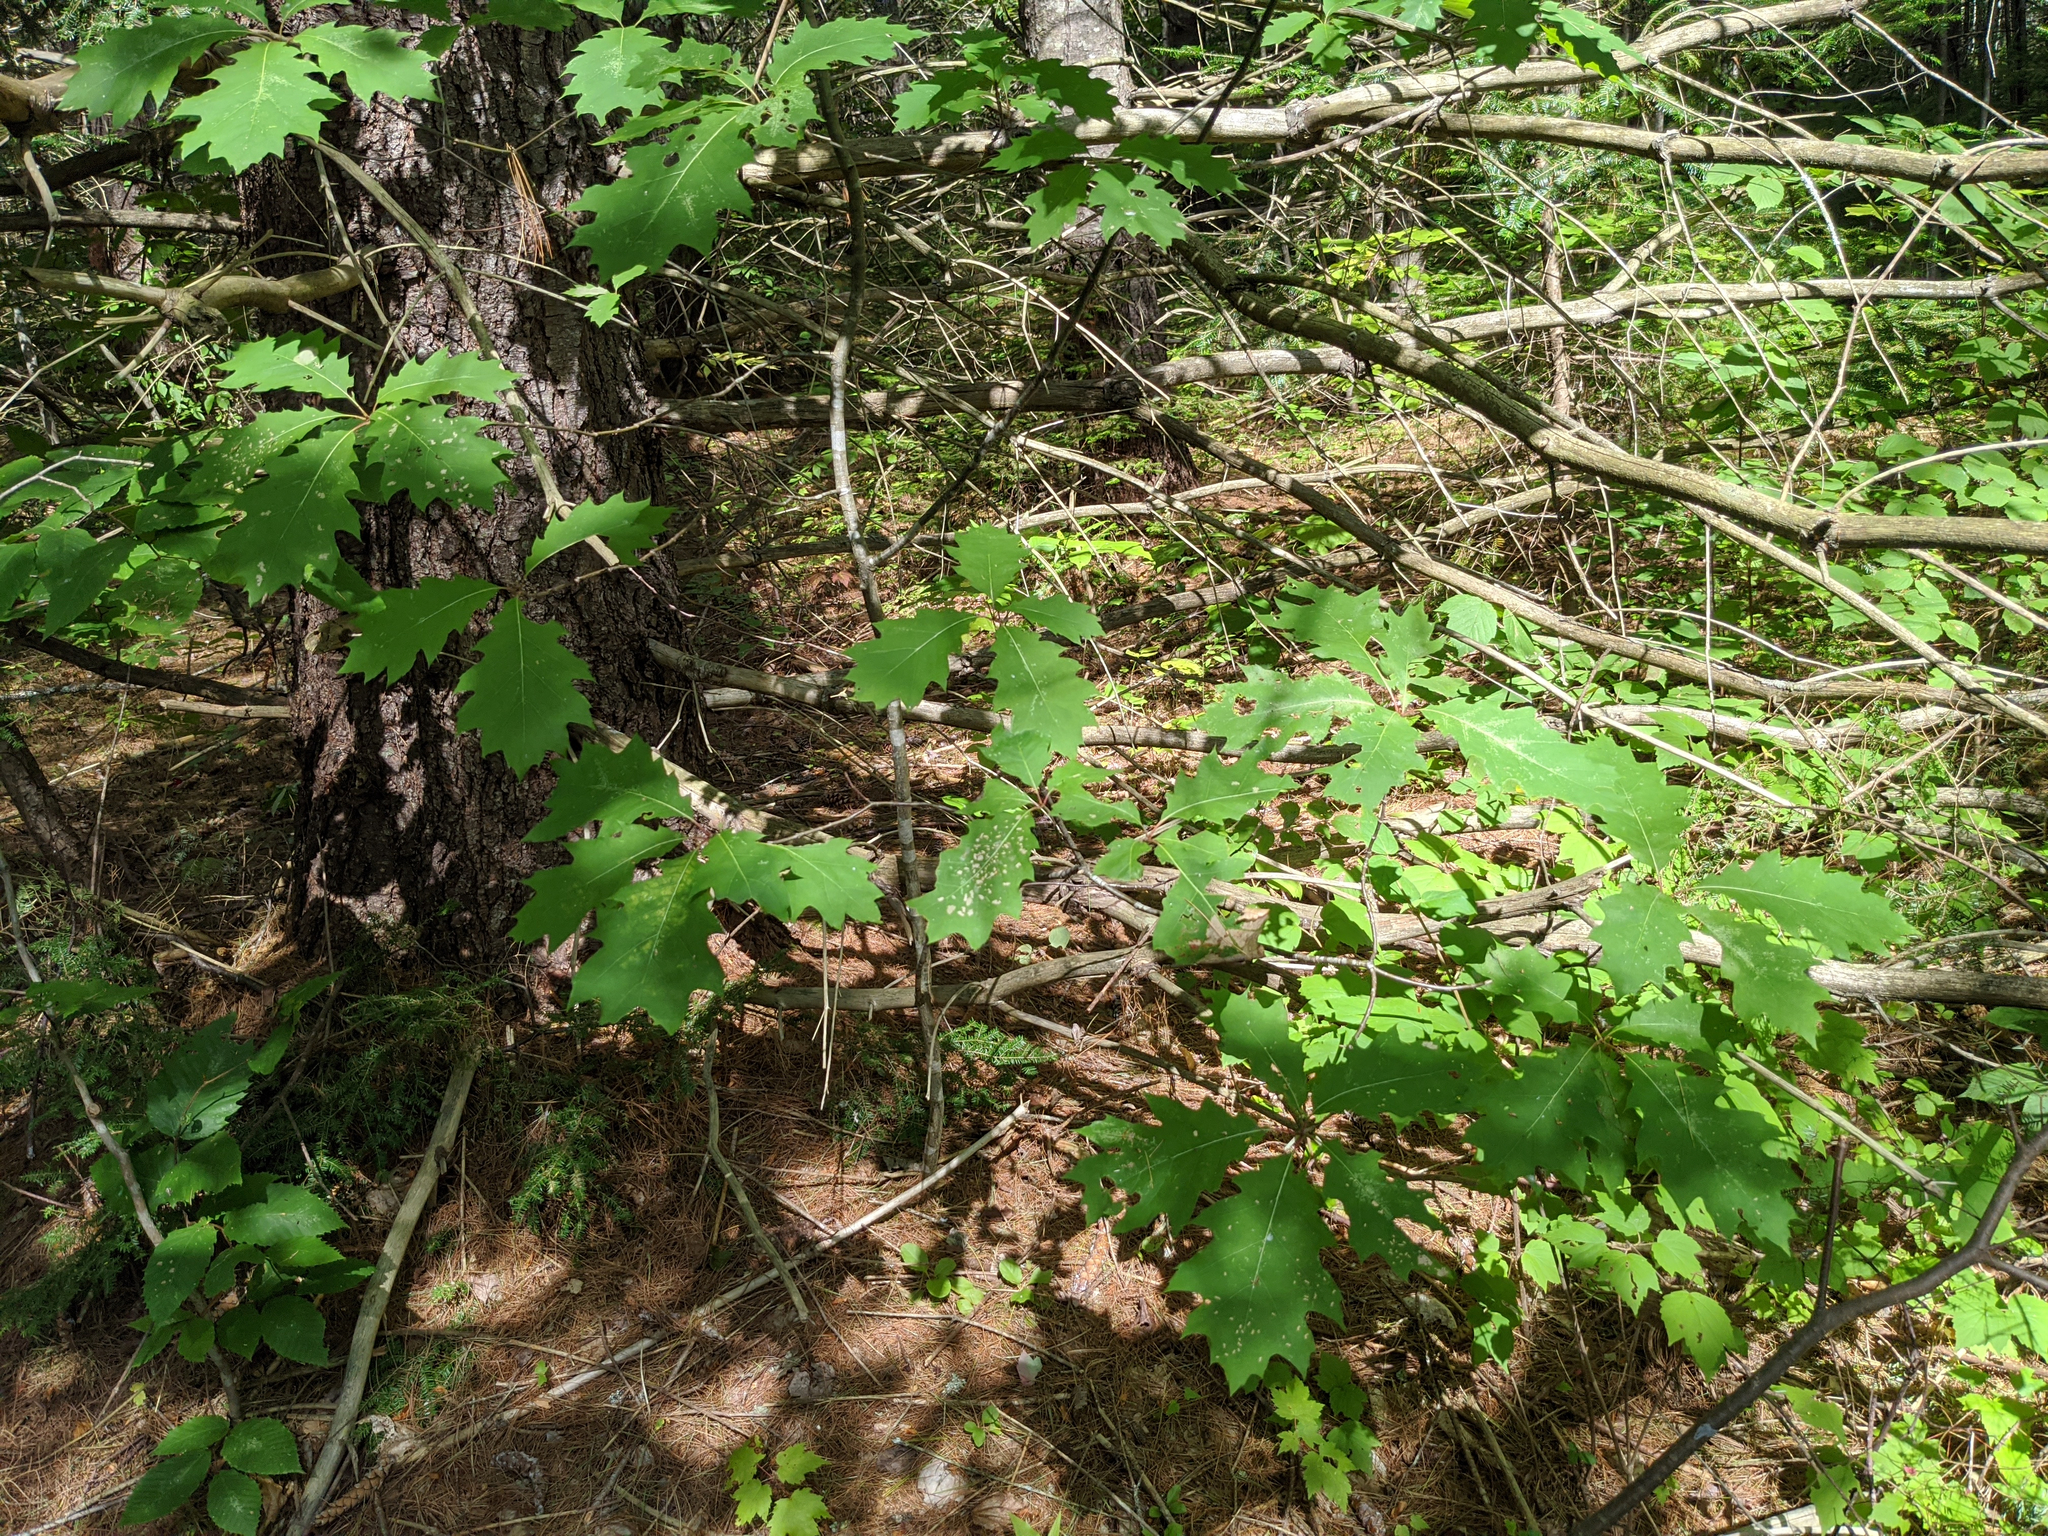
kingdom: Plantae
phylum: Tracheophyta
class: Magnoliopsida
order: Fagales
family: Fagaceae
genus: Quercus
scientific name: Quercus rubra
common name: Red oak
